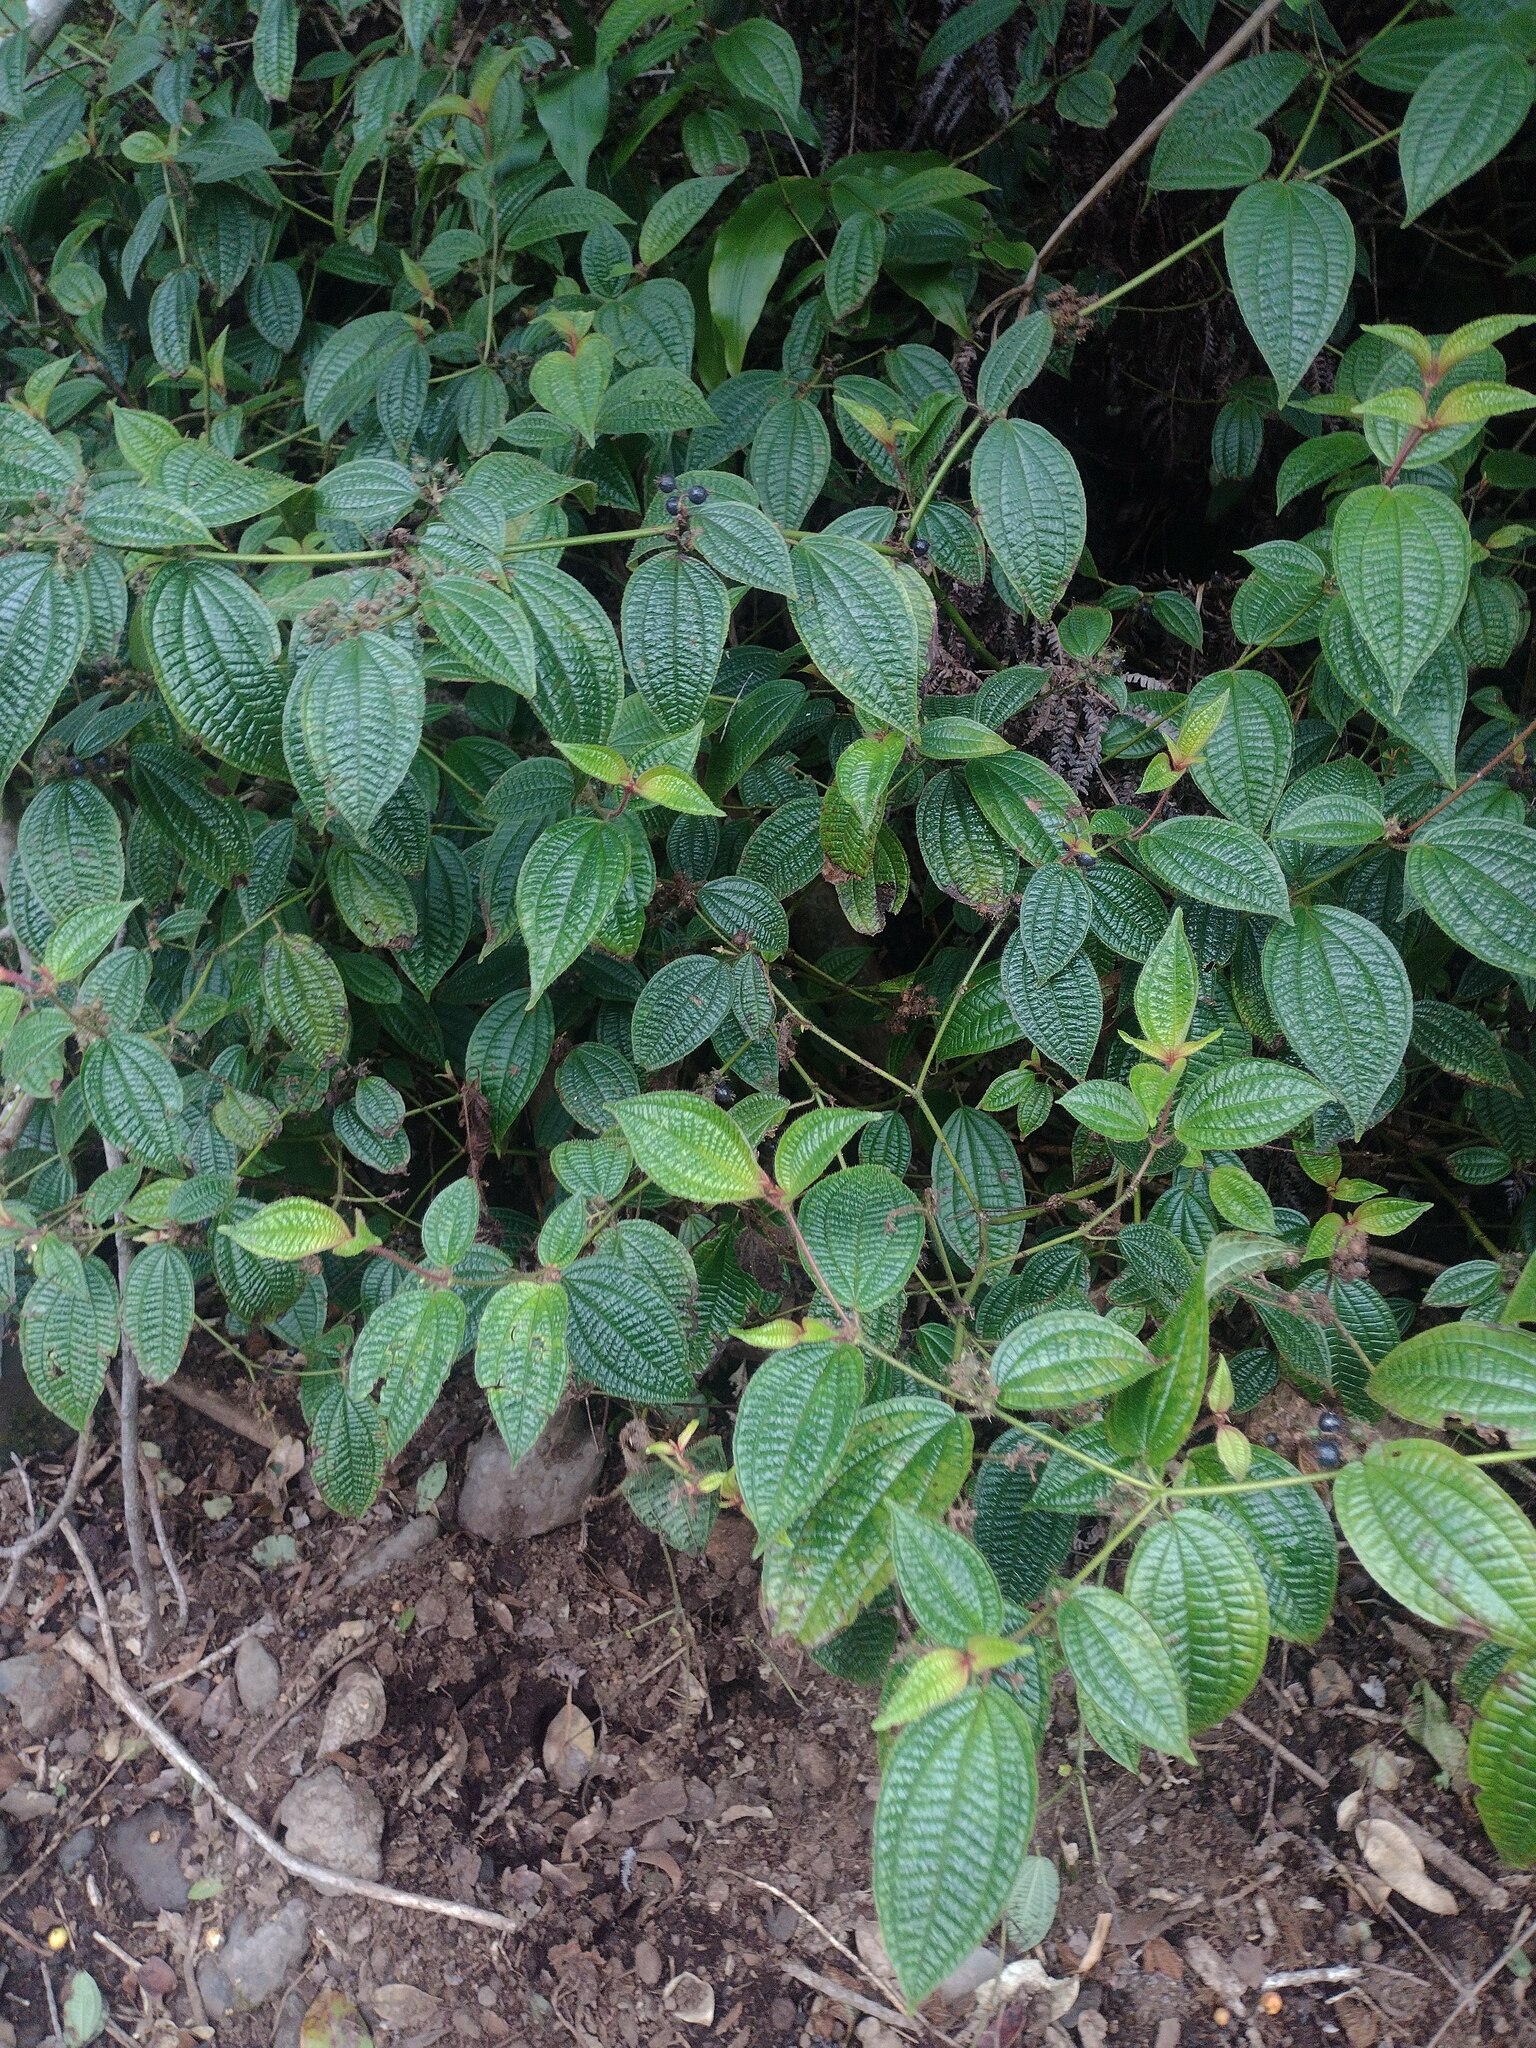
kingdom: Plantae
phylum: Tracheophyta
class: Magnoliopsida
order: Myrtales
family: Melastomataceae
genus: Miconia
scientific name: Miconia crenata
